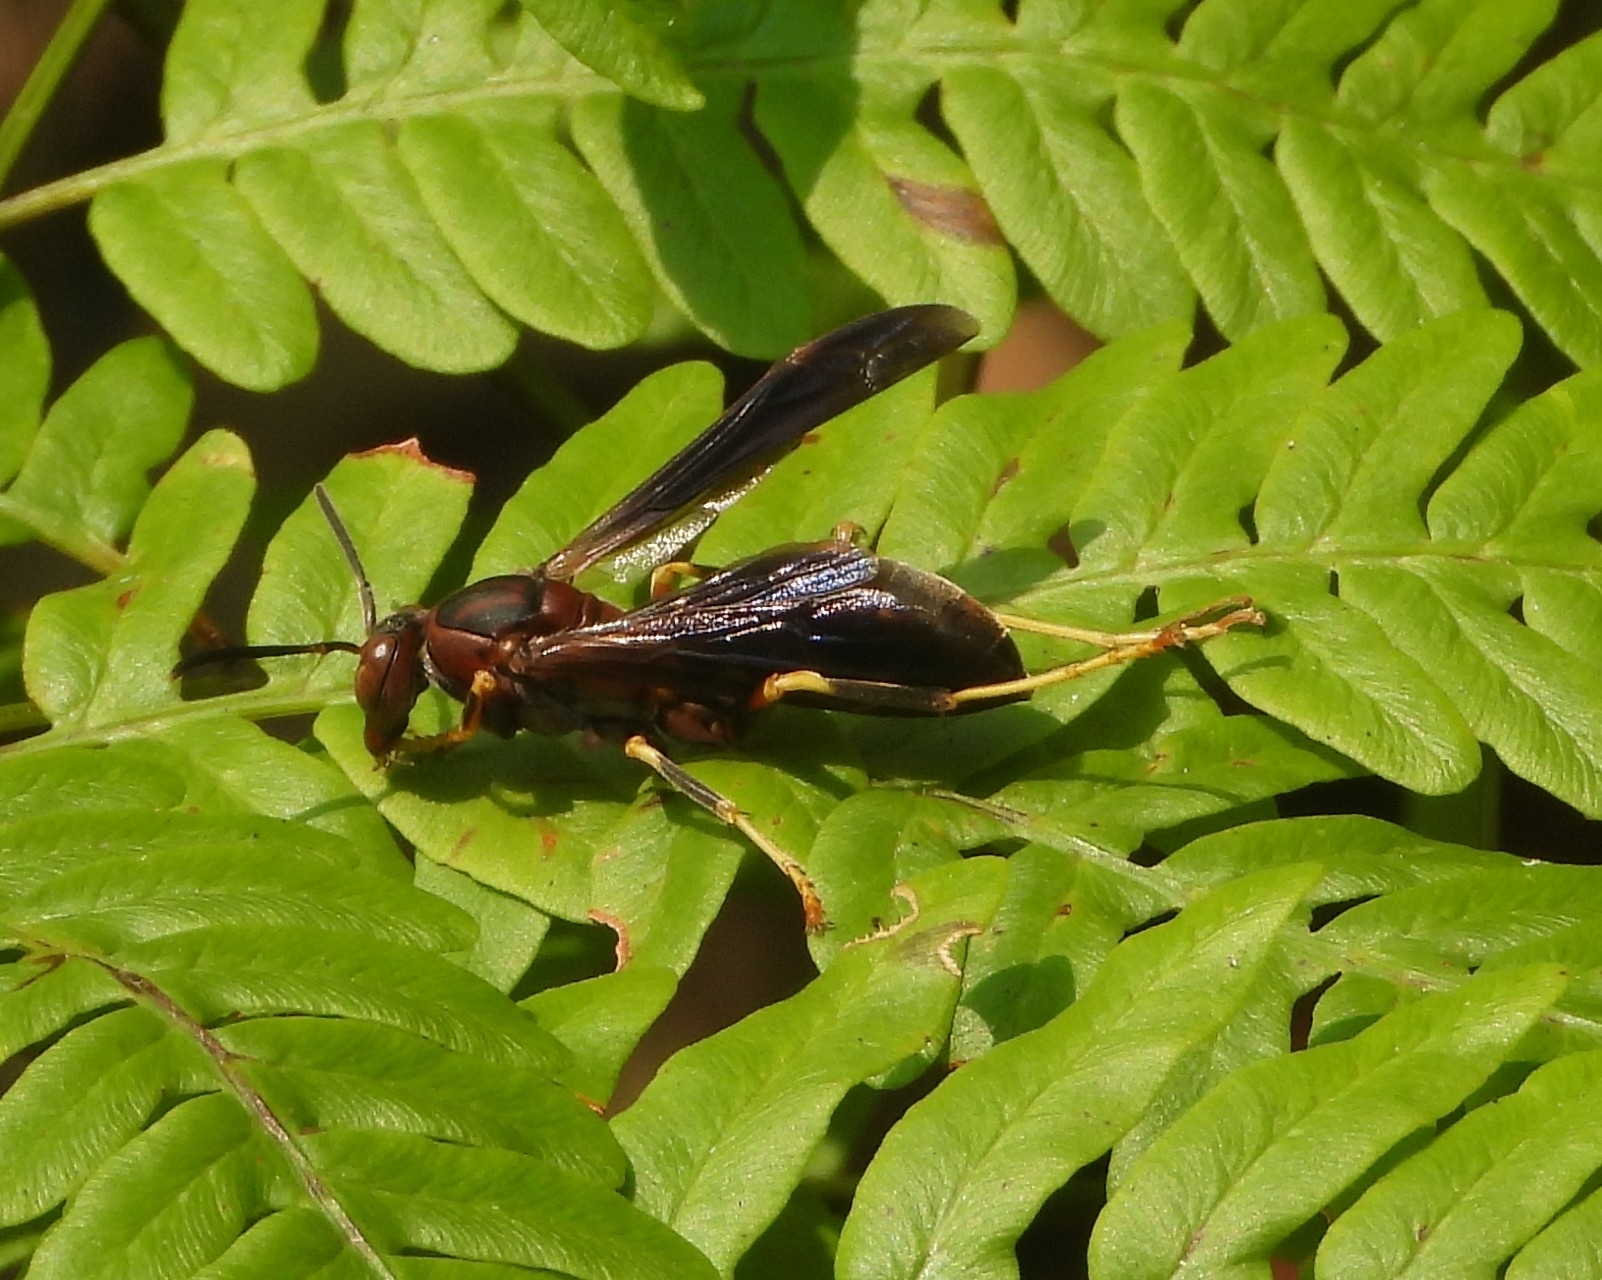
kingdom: Animalia
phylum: Arthropoda
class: Insecta
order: Hymenoptera
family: Eumenidae
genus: Polistes
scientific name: Polistes metricus
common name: Metric paper wasp
